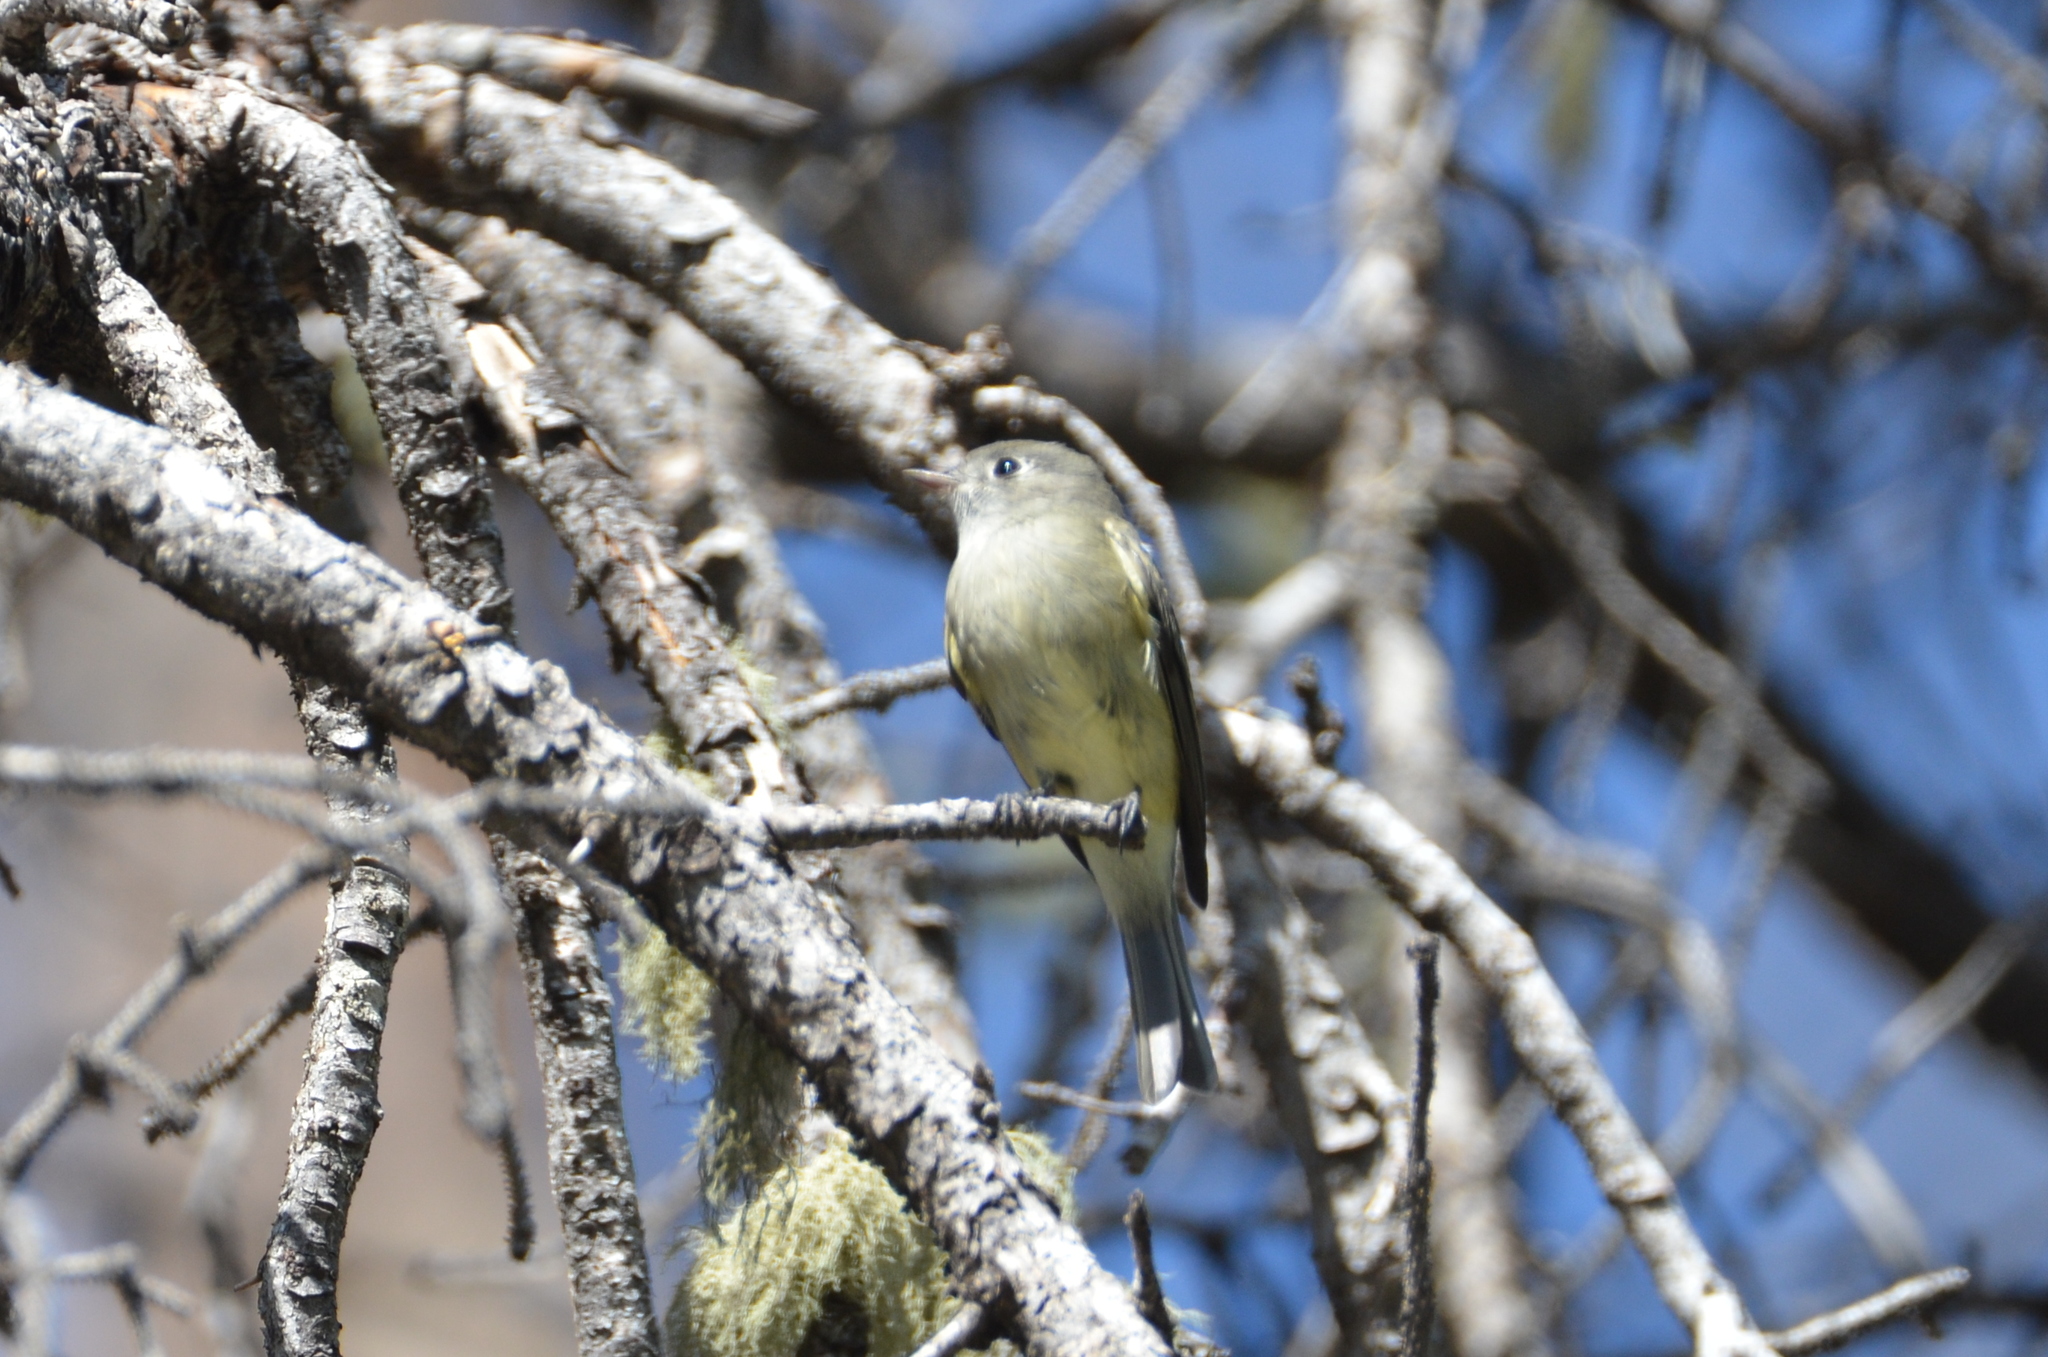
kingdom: Animalia
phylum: Chordata
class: Aves
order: Passeriformes
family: Tyrannidae
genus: Empidonax
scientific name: Empidonax hammondii
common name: Hammond's flycatcher
